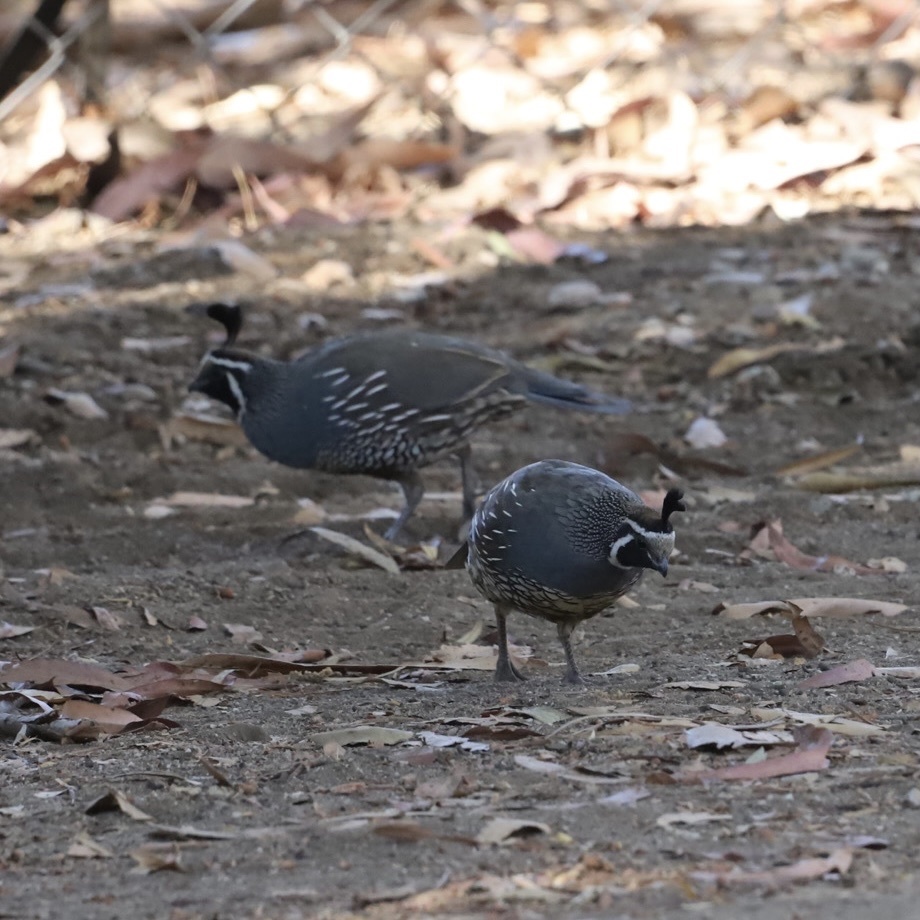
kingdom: Animalia
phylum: Chordata
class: Aves
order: Galliformes
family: Odontophoridae
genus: Callipepla
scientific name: Callipepla californica
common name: California quail
